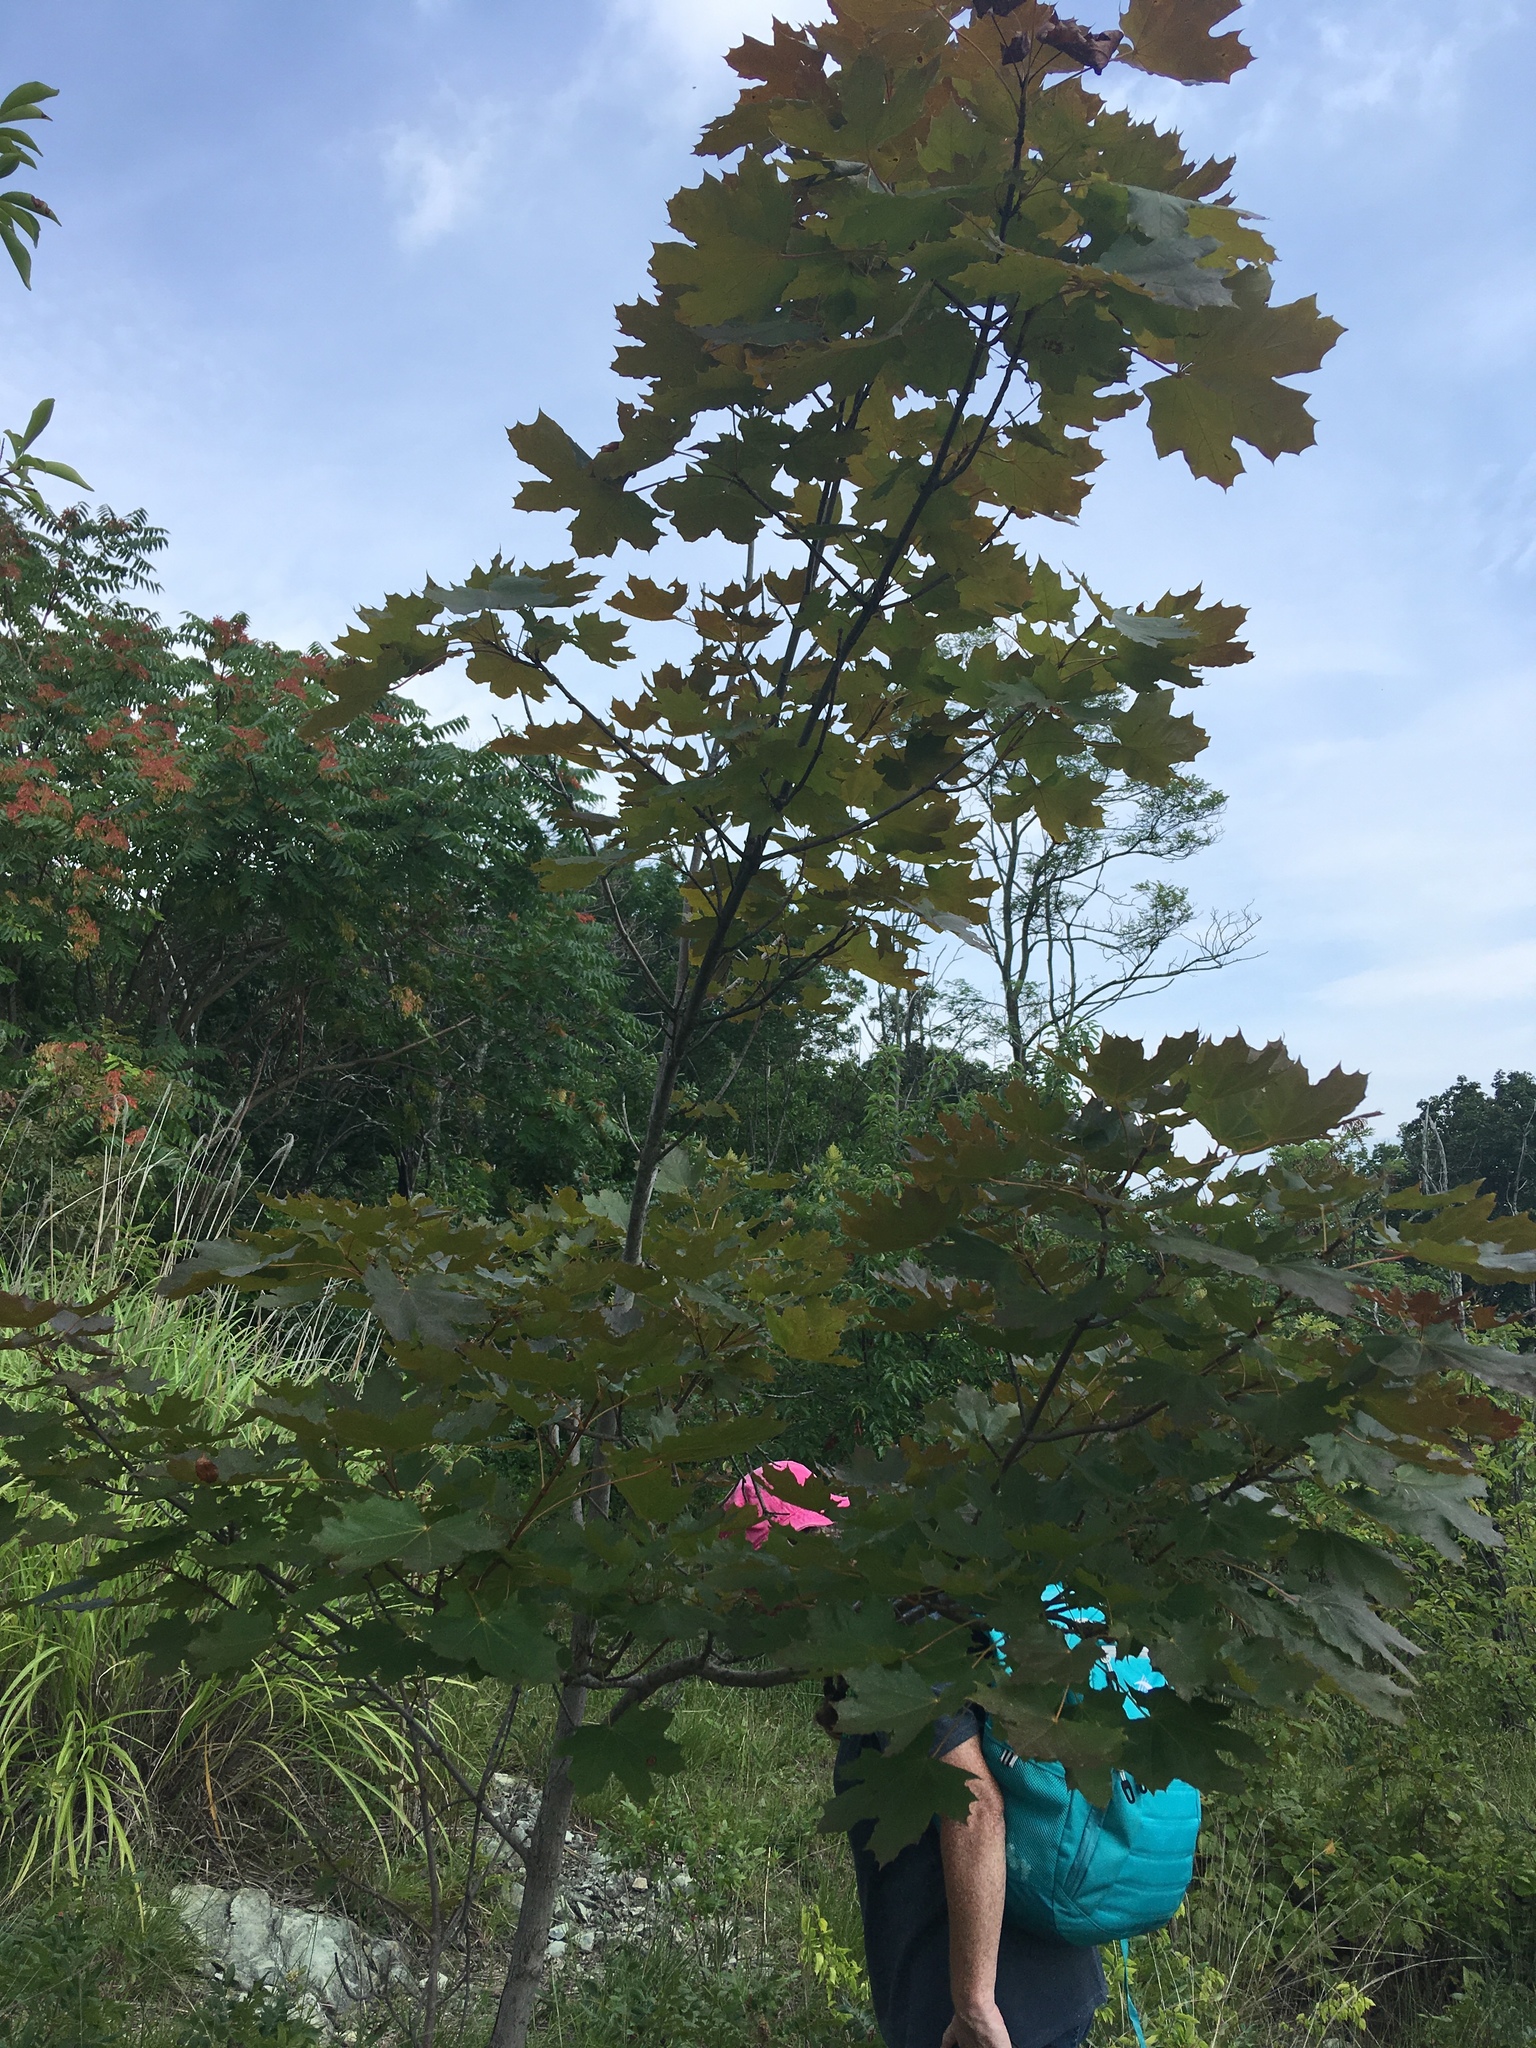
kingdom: Plantae
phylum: Tracheophyta
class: Magnoliopsida
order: Sapindales
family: Sapindaceae
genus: Acer
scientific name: Acer platanoides
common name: Norway maple
